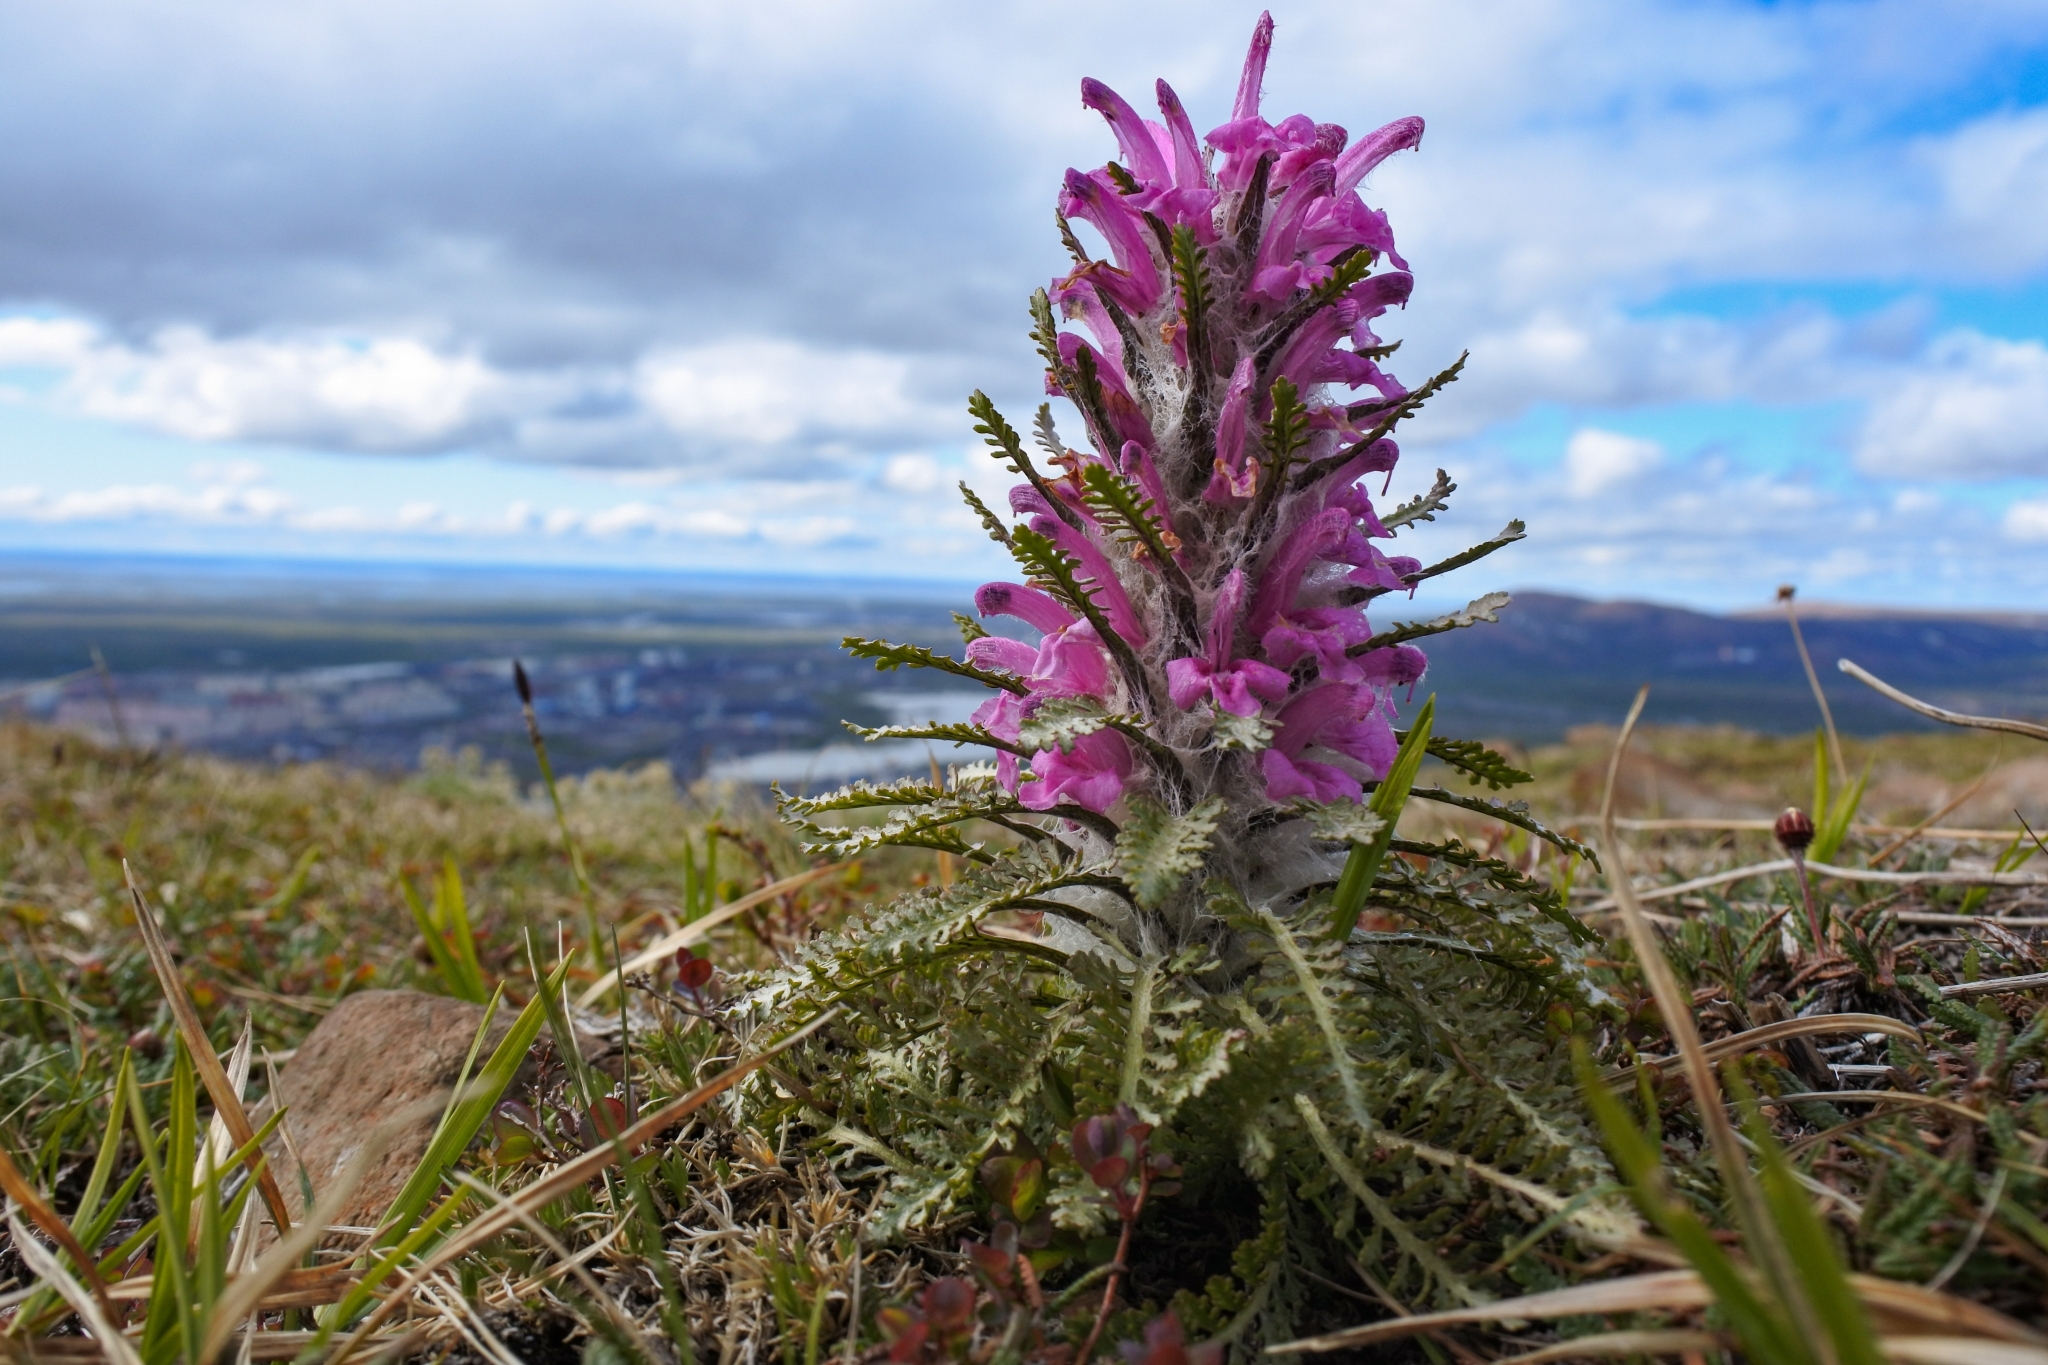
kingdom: Plantae
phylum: Tracheophyta
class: Magnoliopsida
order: Lamiales
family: Orobanchaceae
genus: Pedicularis
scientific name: Pedicularis alopecuroides
